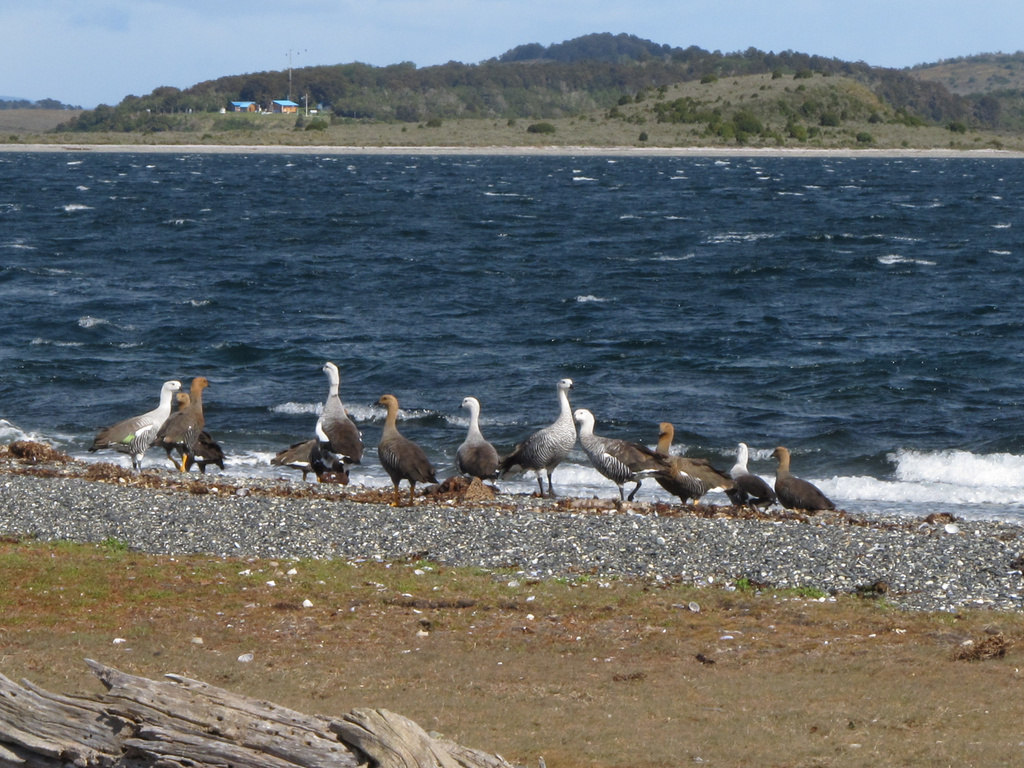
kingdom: Animalia
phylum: Chordata
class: Aves
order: Anseriformes
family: Anatidae
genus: Chloephaga
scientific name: Chloephaga picta
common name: Upland goose
